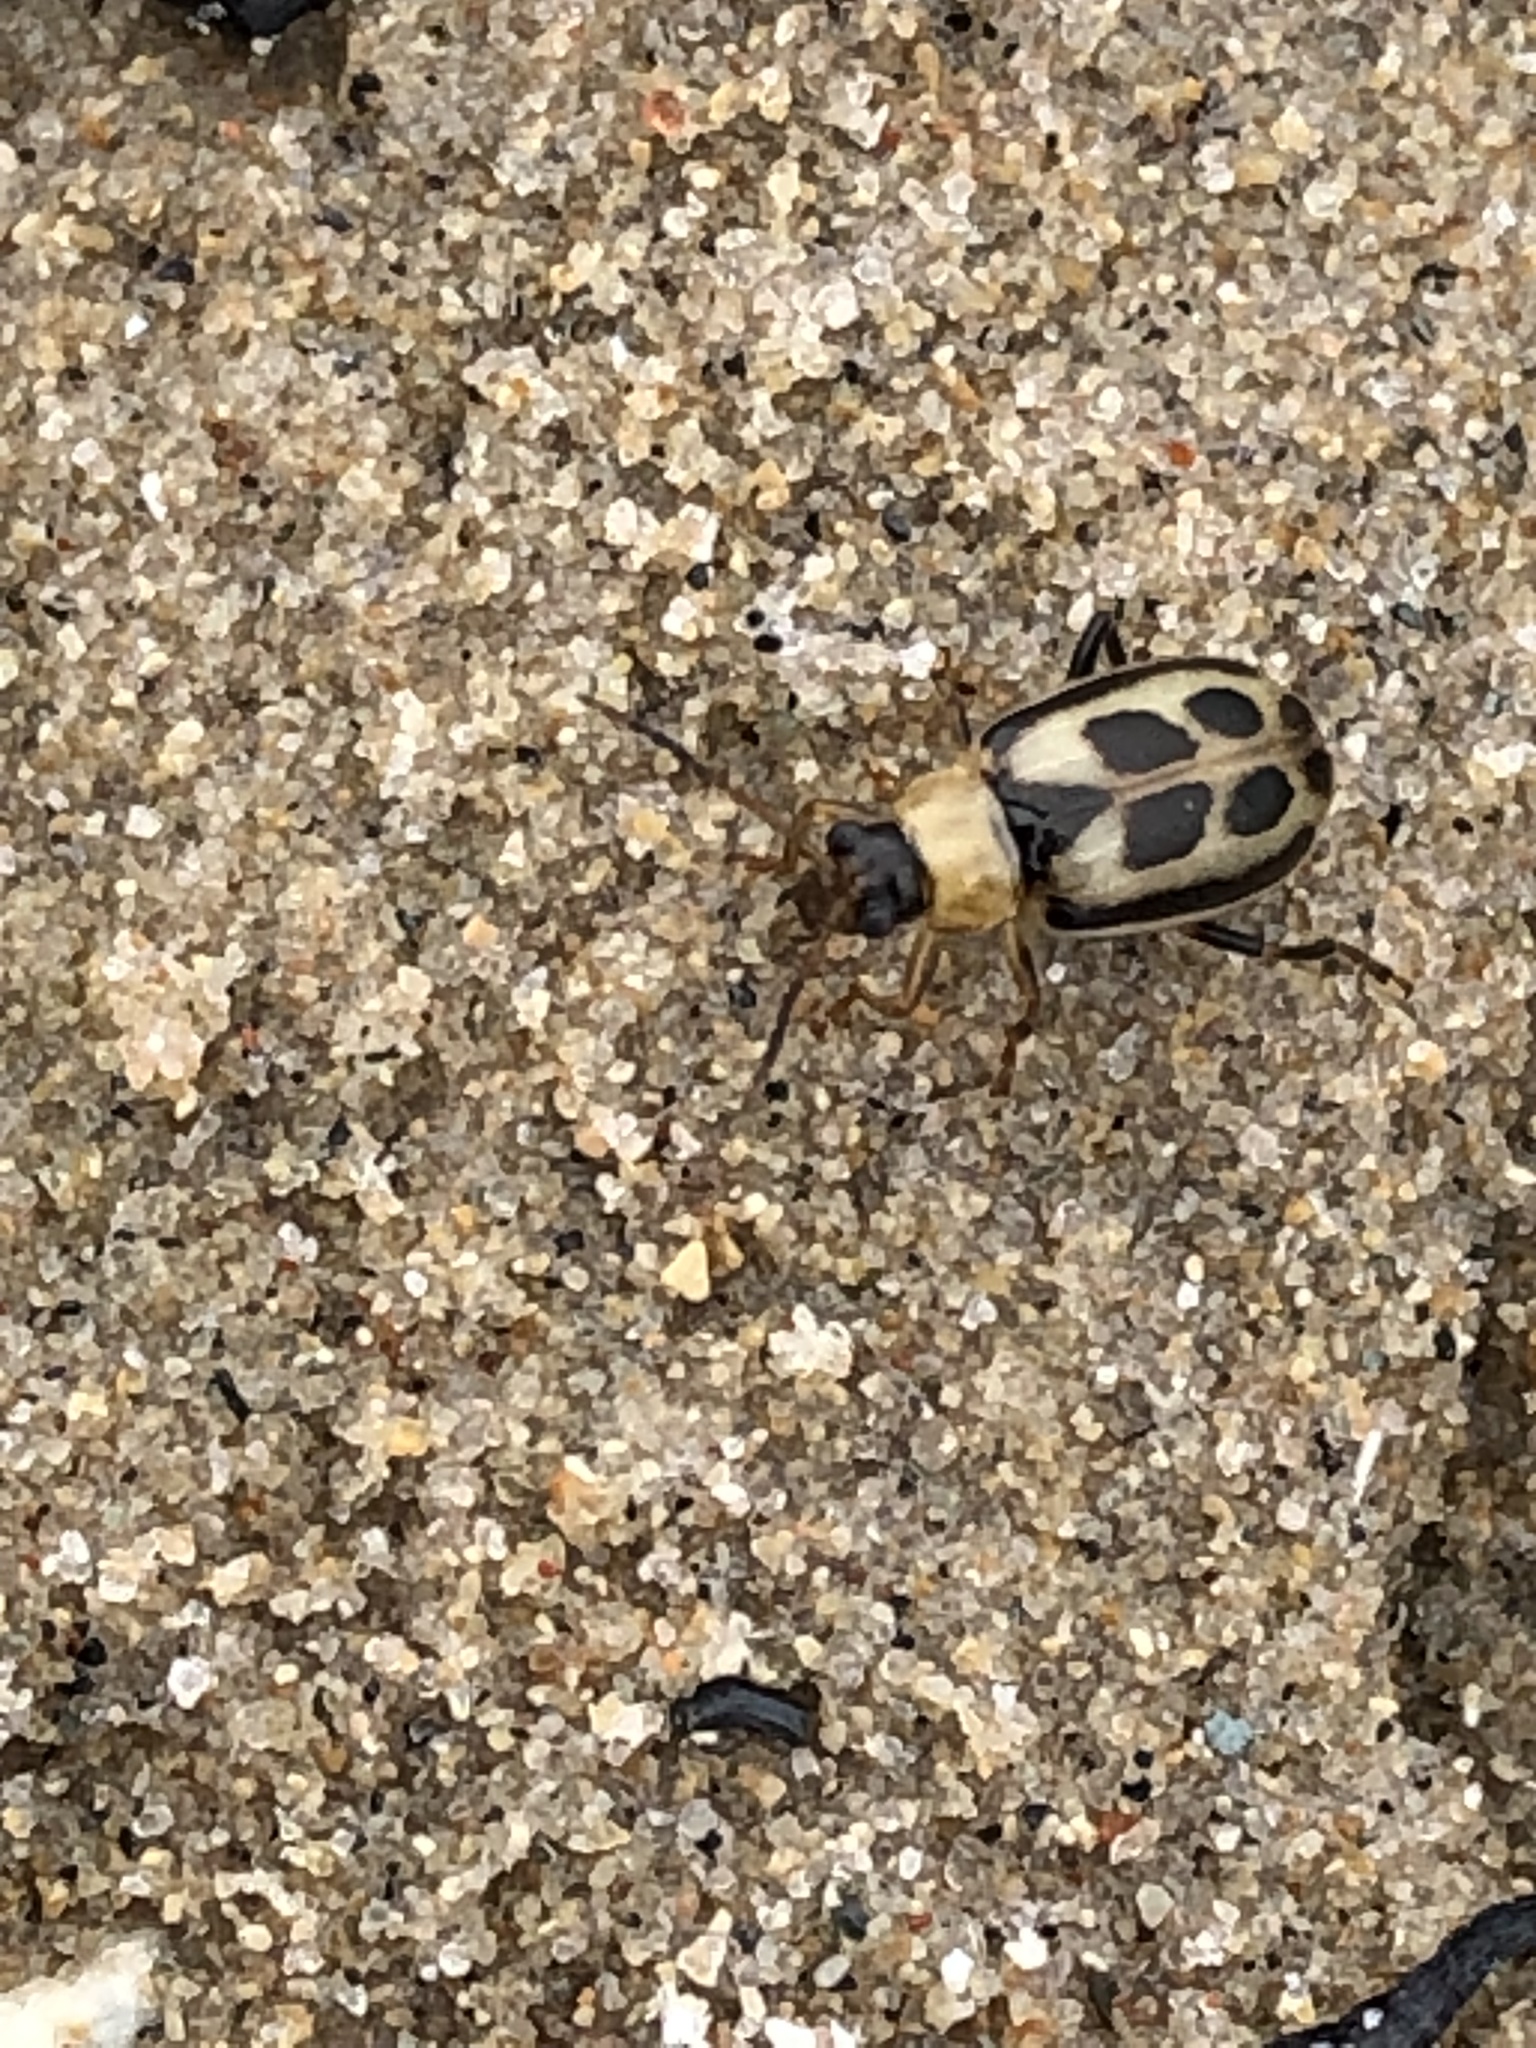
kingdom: Animalia
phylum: Arthropoda
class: Insecta
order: Coleoptera
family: Chrysomelidae
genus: Cerotoma
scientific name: Cerotoma trifurcata
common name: Bean leaf beetle
